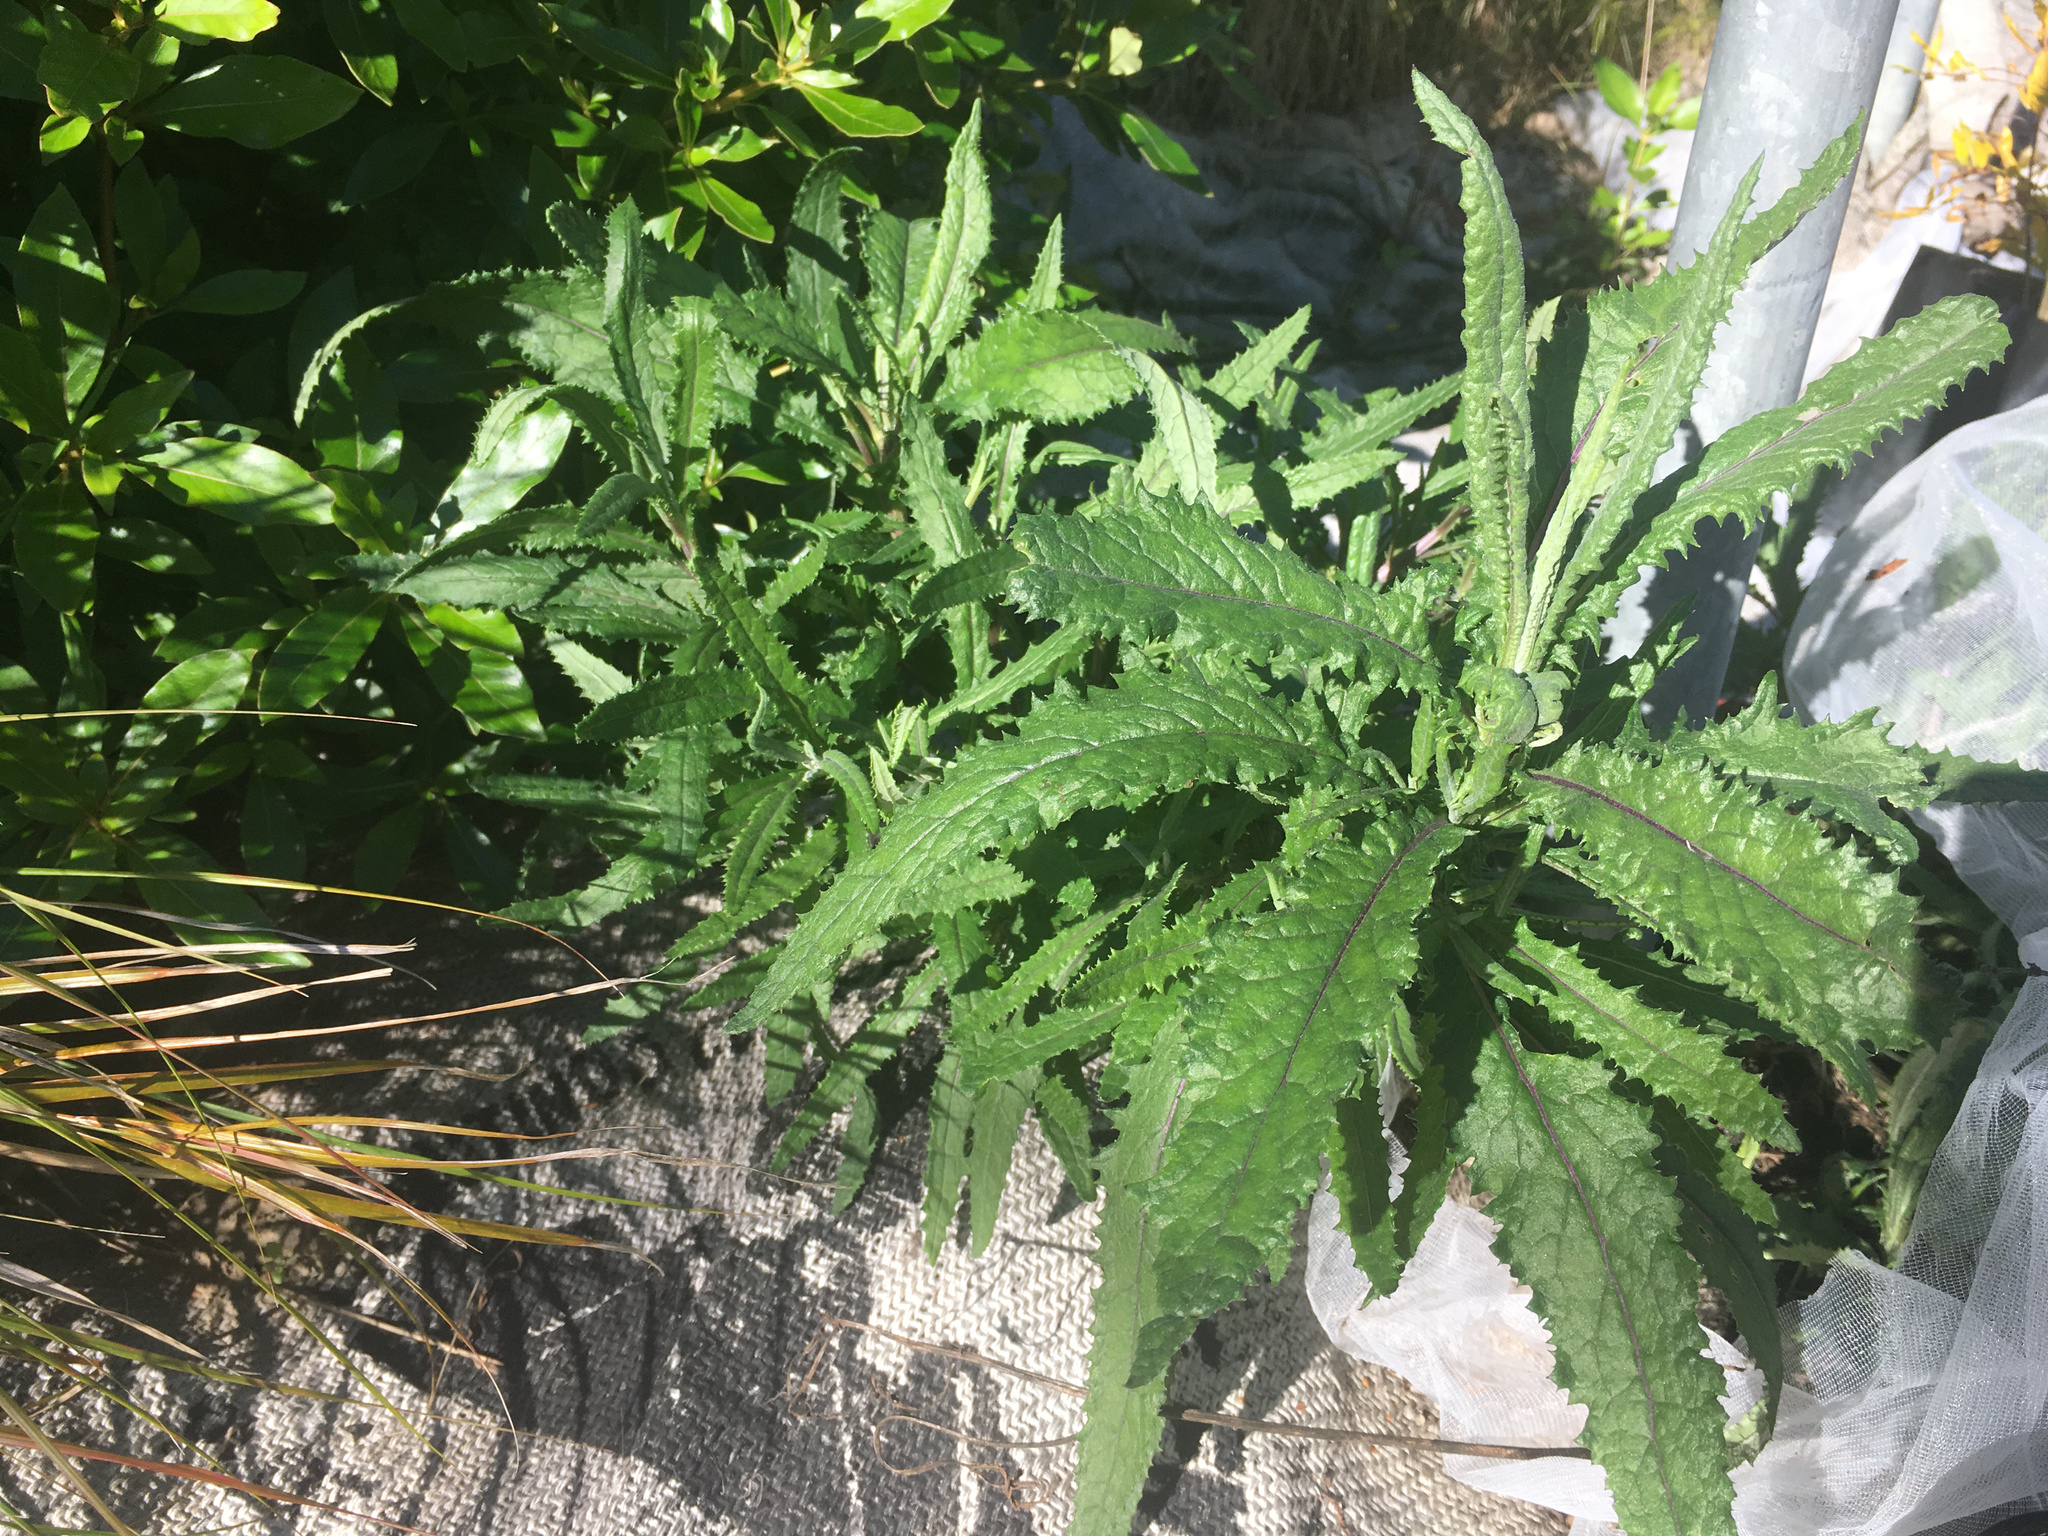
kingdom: Plantae
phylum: Tracheophyta
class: Magnoliopsida
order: Asterales
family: Asteraceae
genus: Senecio
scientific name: Senecio minimus
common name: Toothed fireweed
